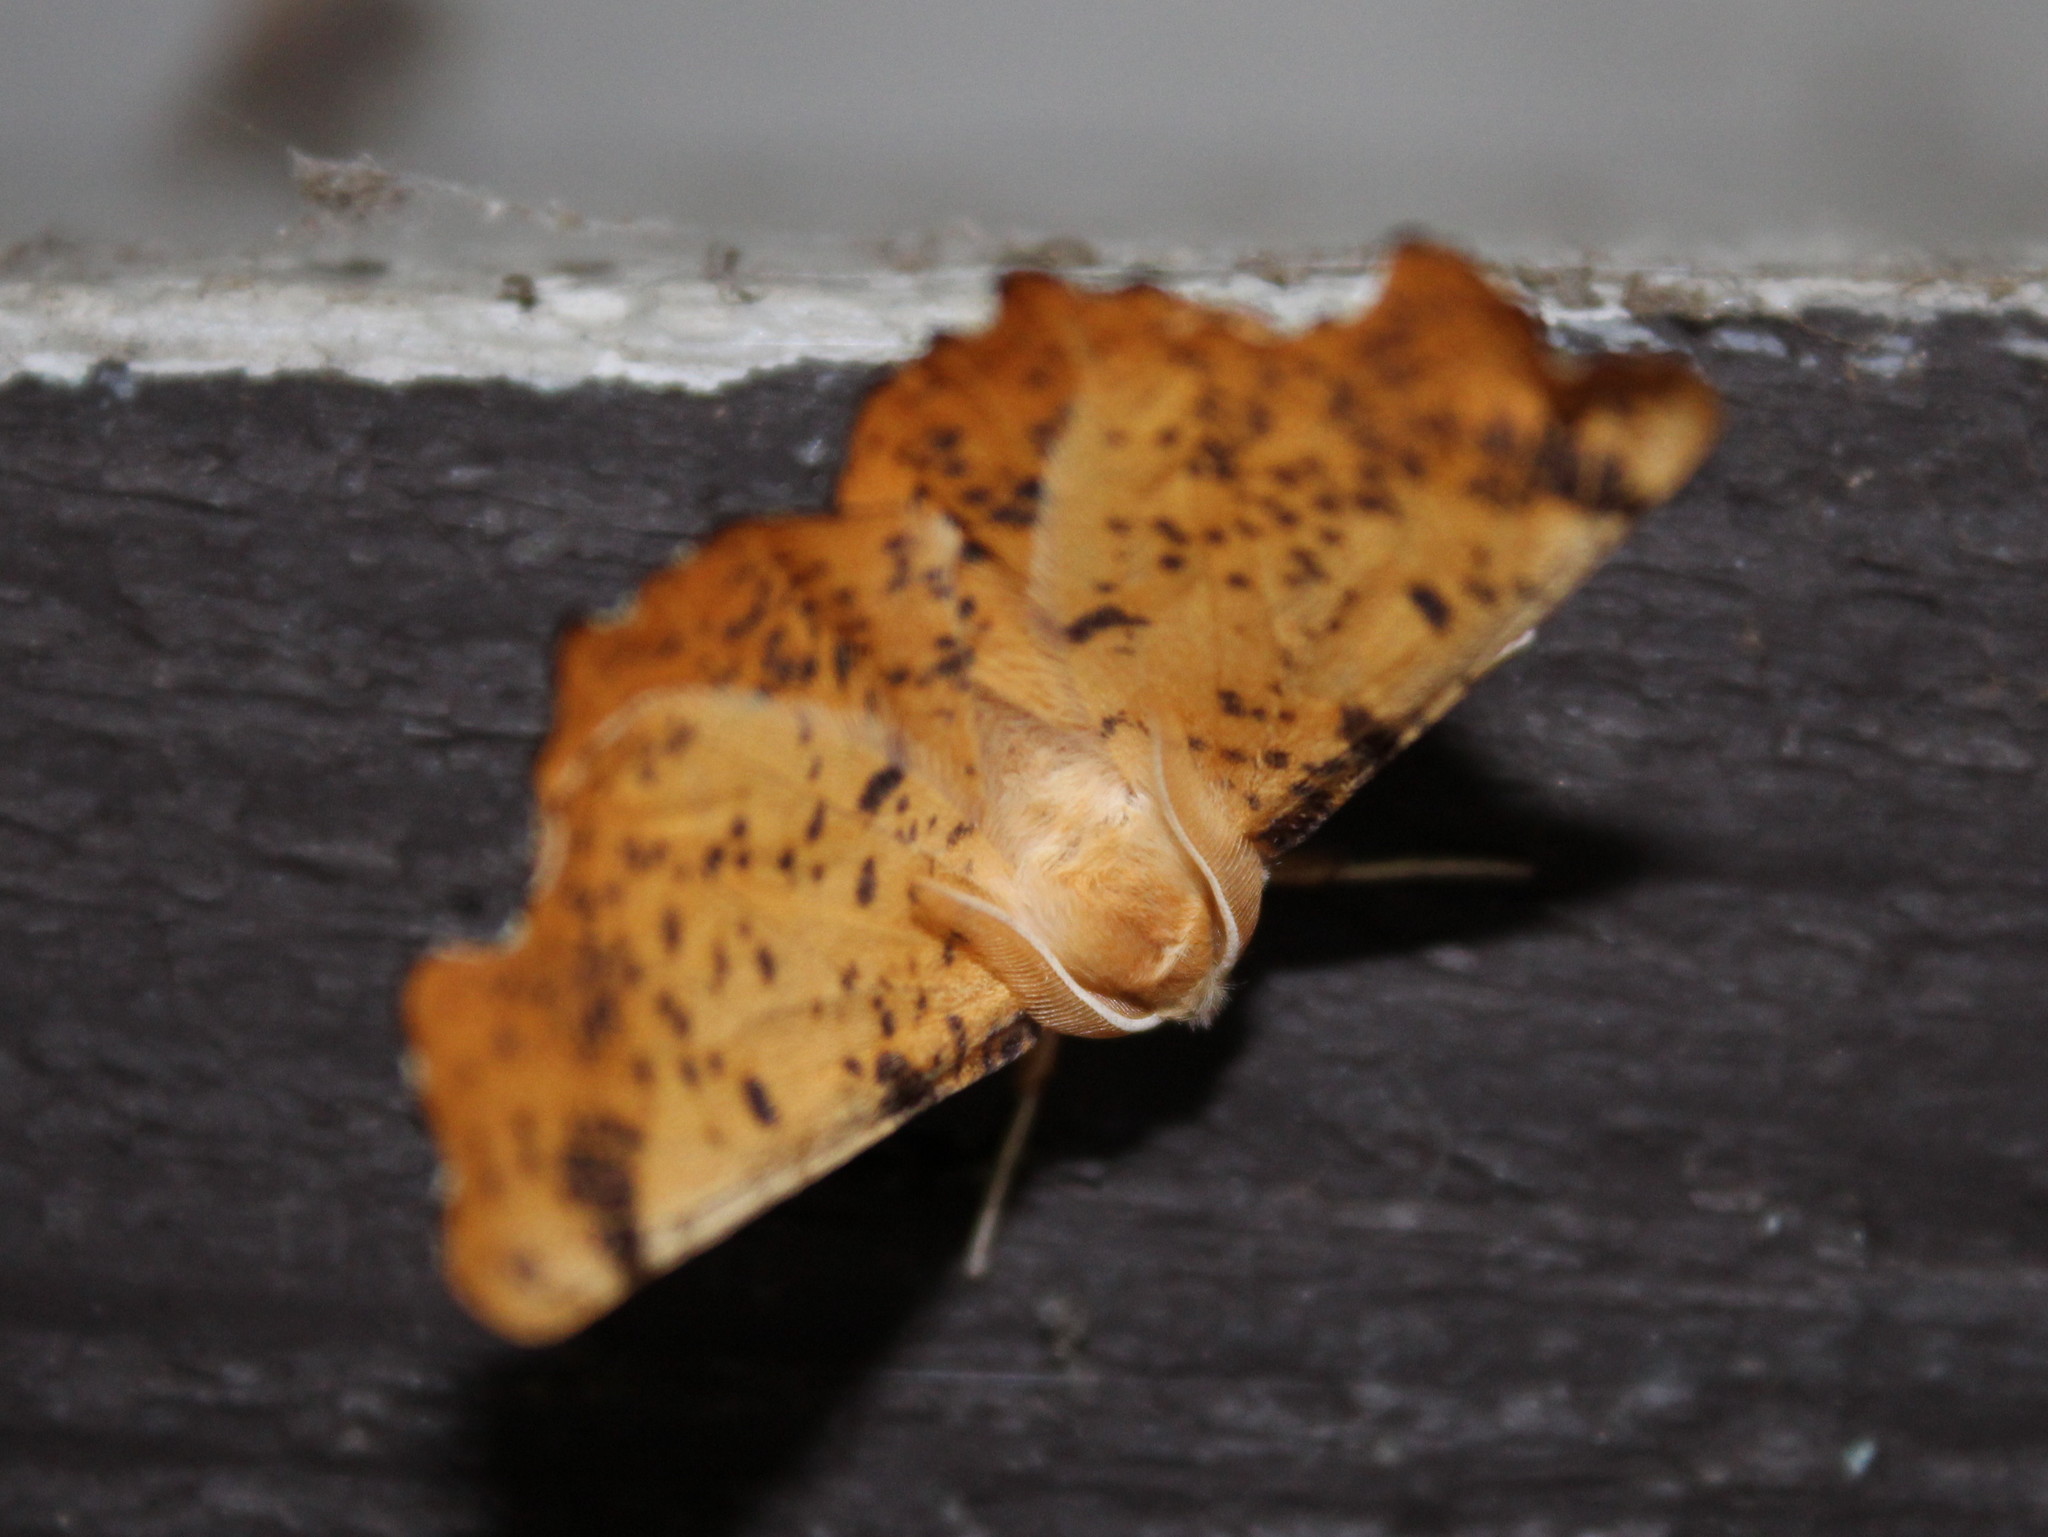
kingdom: Animalia
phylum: Arthropoda
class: Insecta
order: Lepidoptera
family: Geometridae
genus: Ennomos
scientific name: Ennomos magnaria
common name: Maple spanworm
